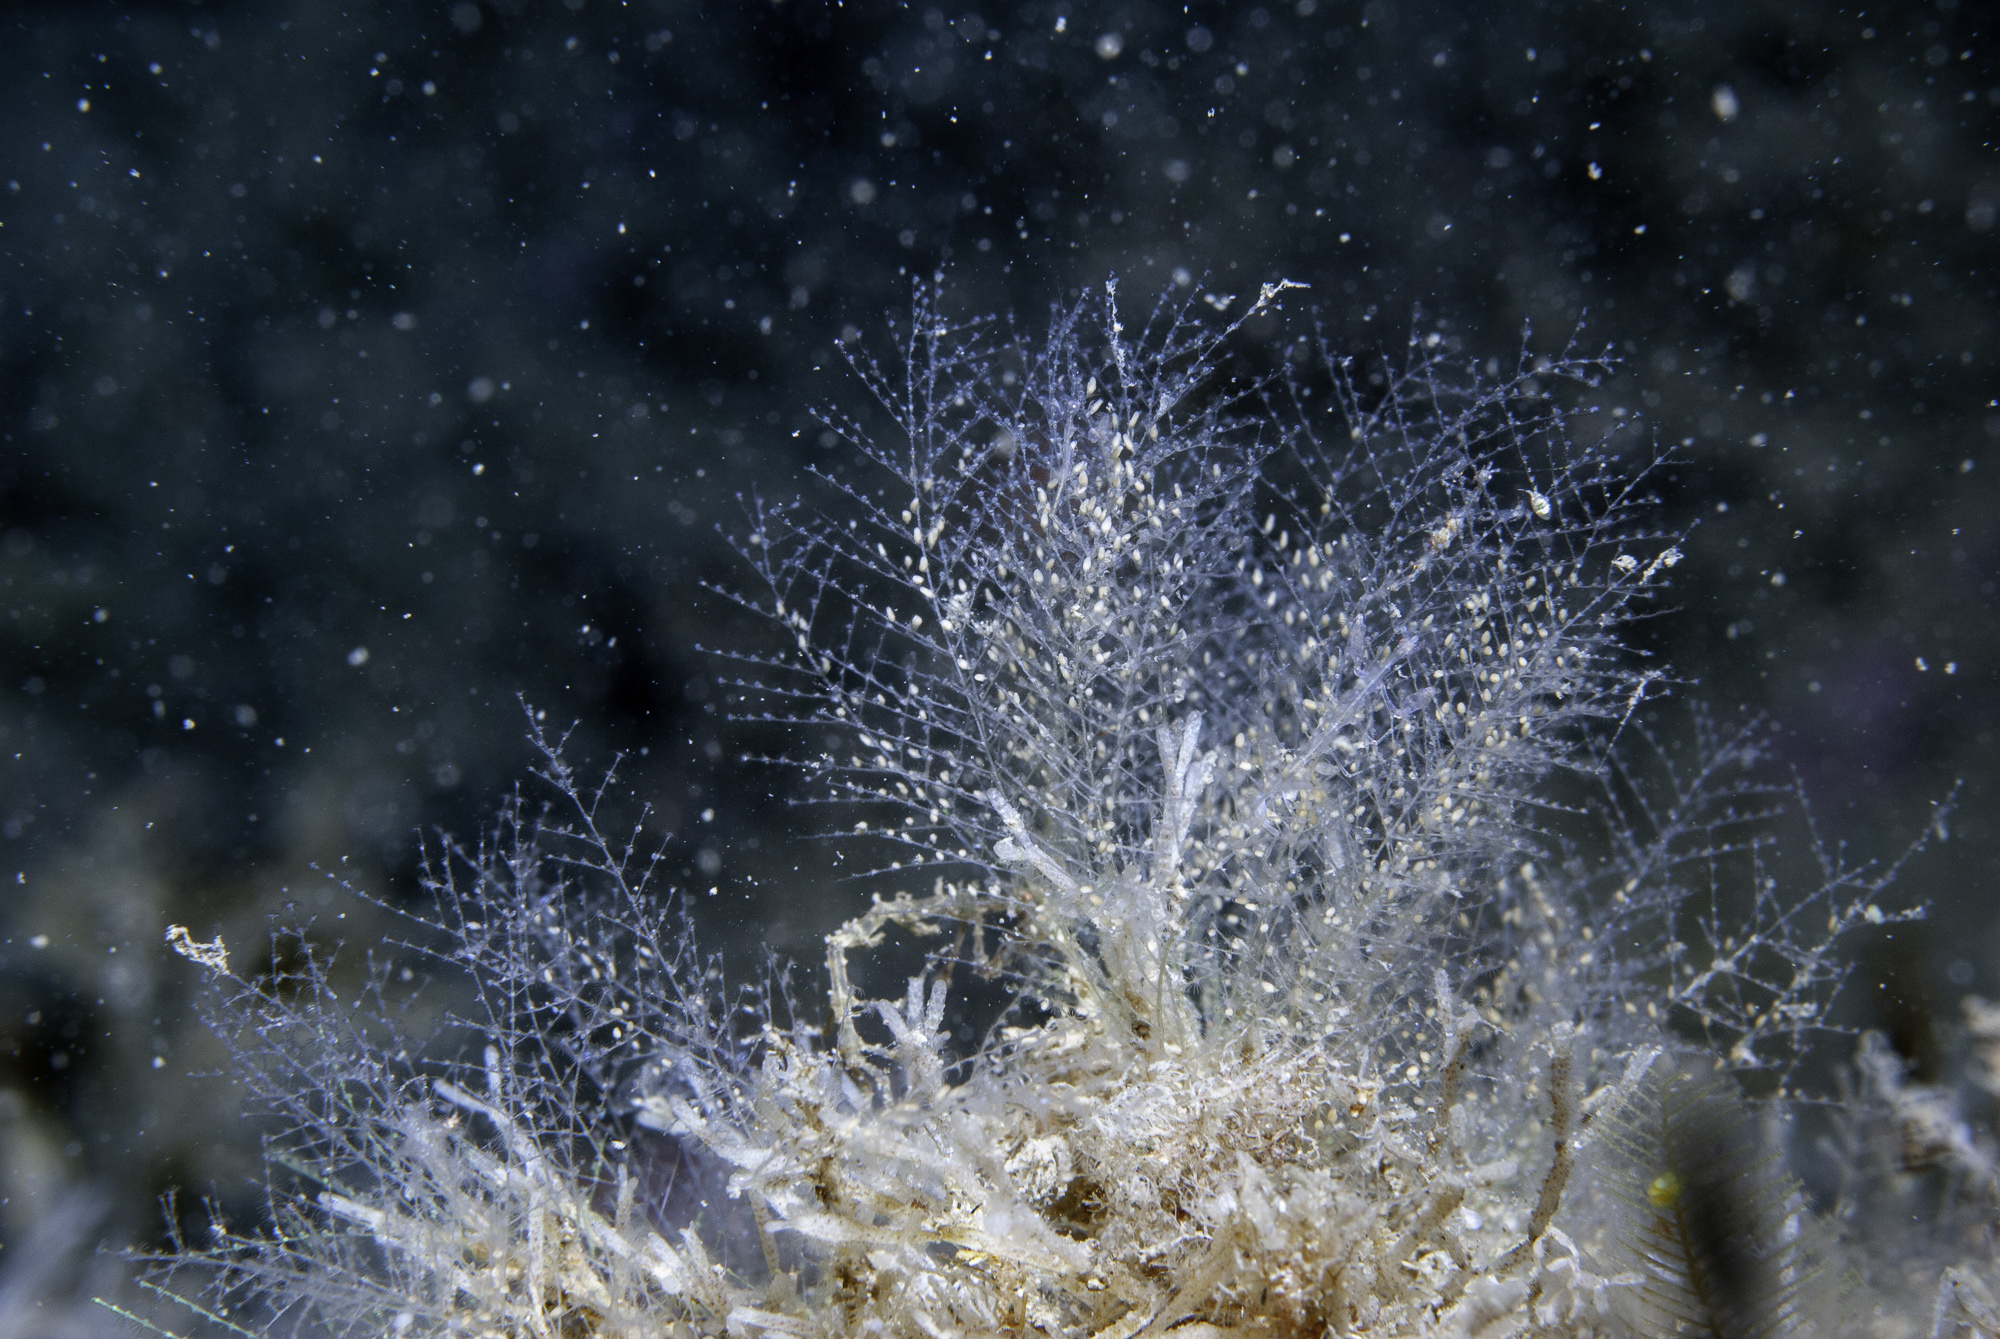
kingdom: Animalia
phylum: Cnidaria
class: Hydrozoa
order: Leptothecata
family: Halopterididae
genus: Halopteris
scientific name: Halopteris catharina
